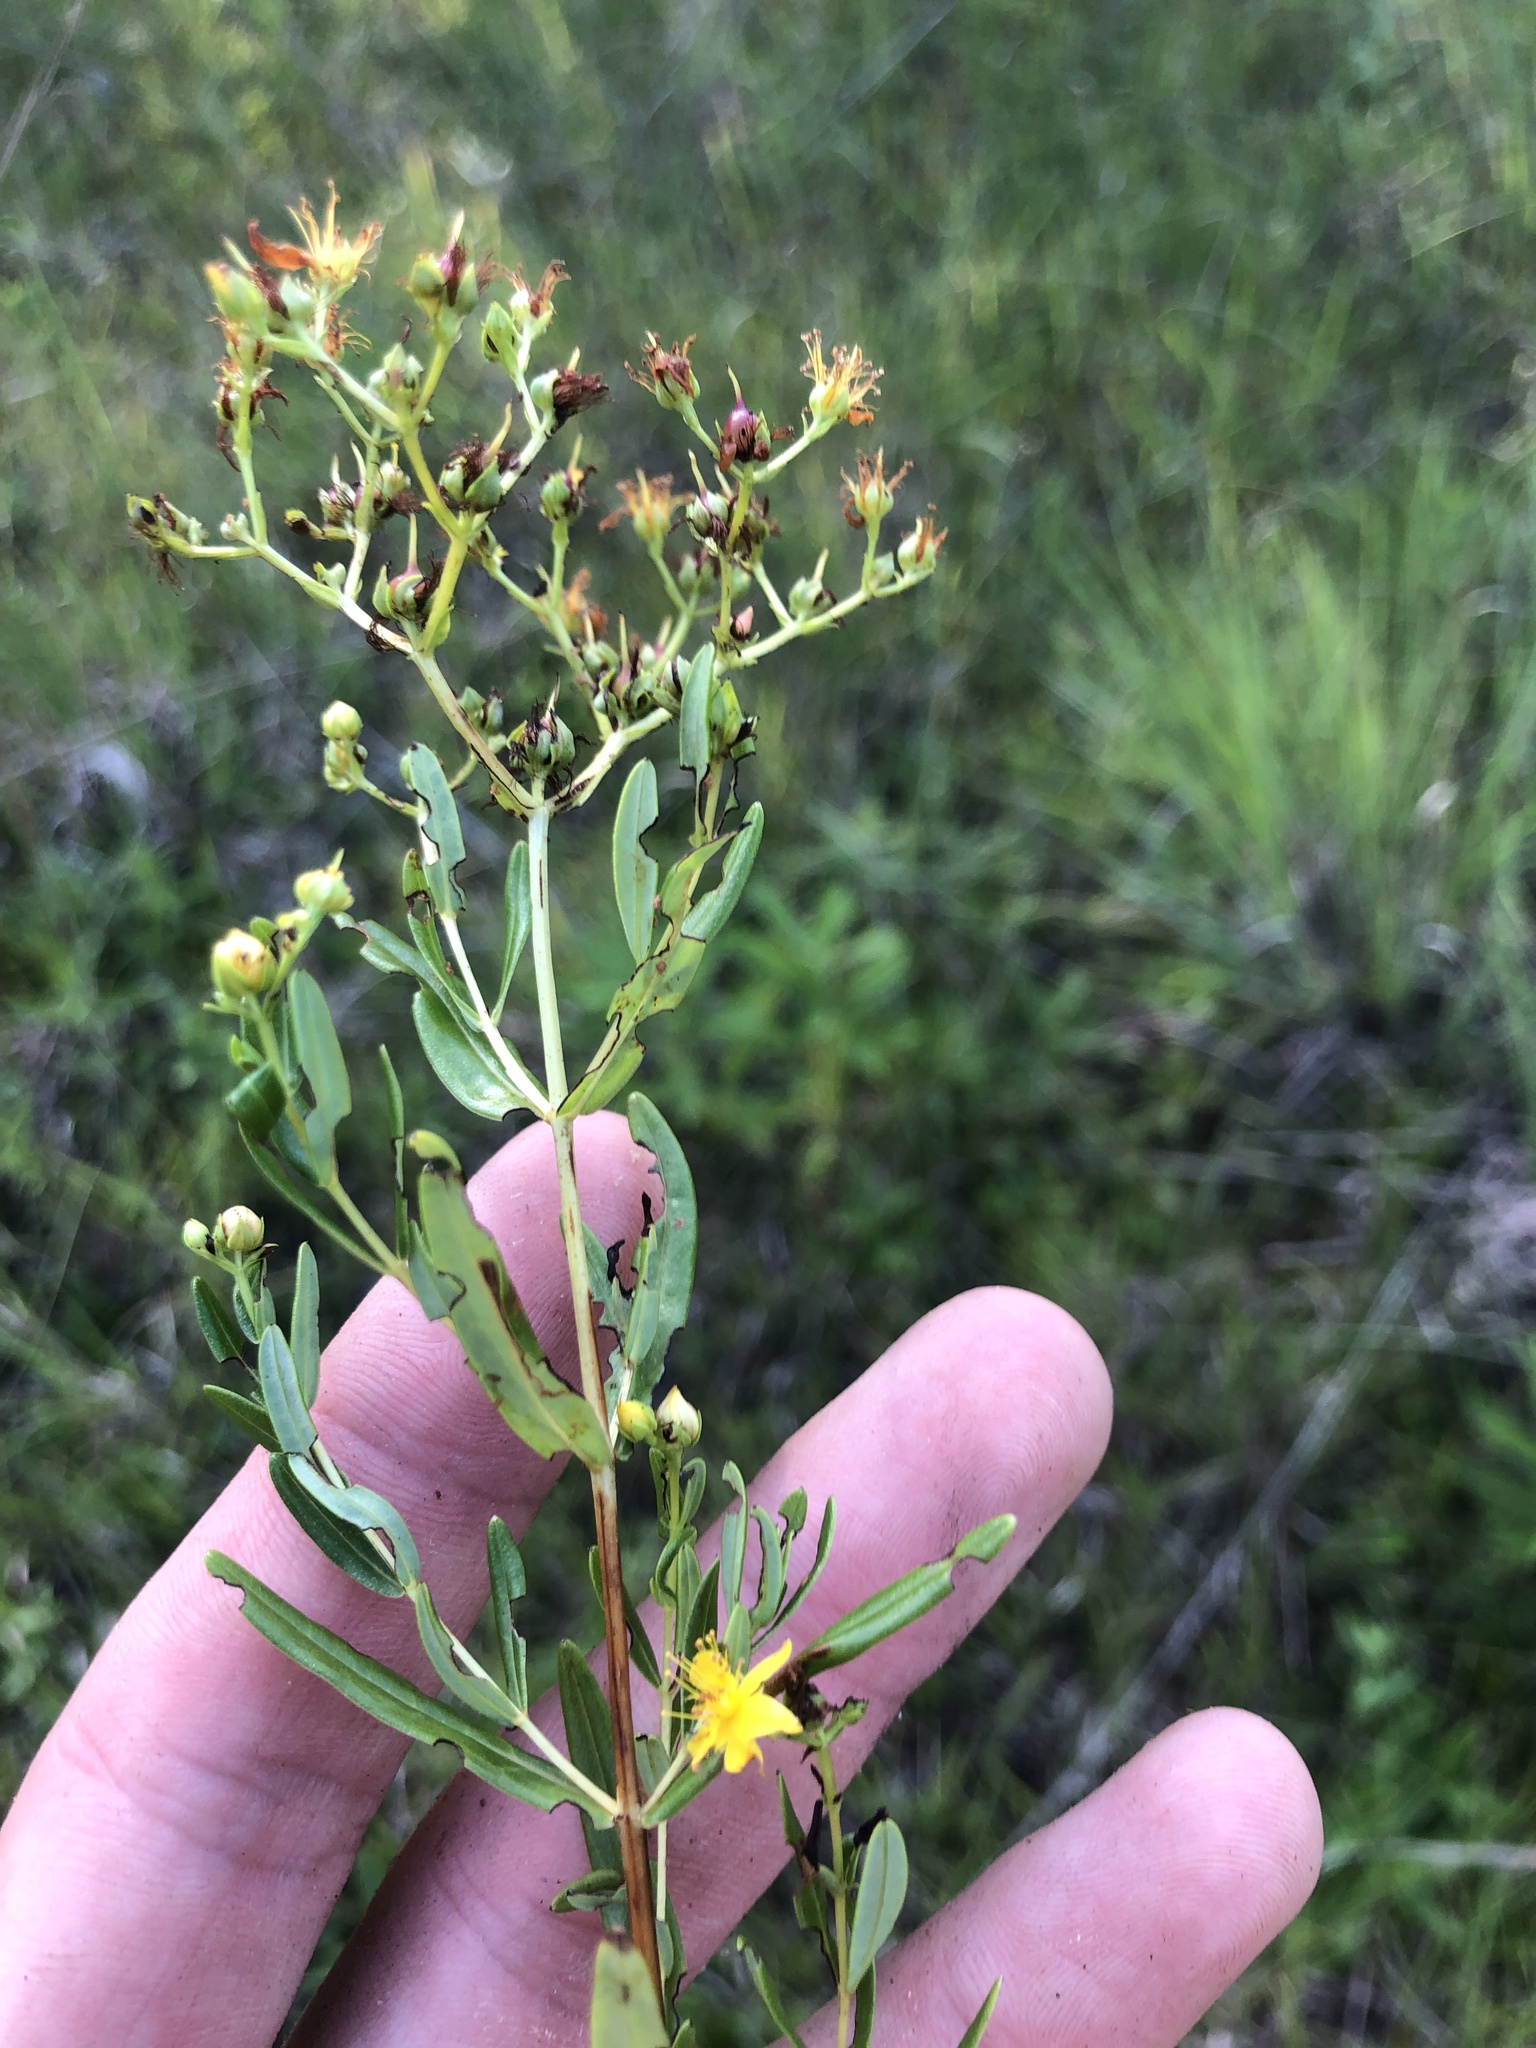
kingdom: Plantae
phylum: Tracheophyta
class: Magnoliopsida
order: Malpighiales
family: Hypericaceae
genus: Hypericum
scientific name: Hypericum sphaerocarpum
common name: Round-fruited st. john's-wort
